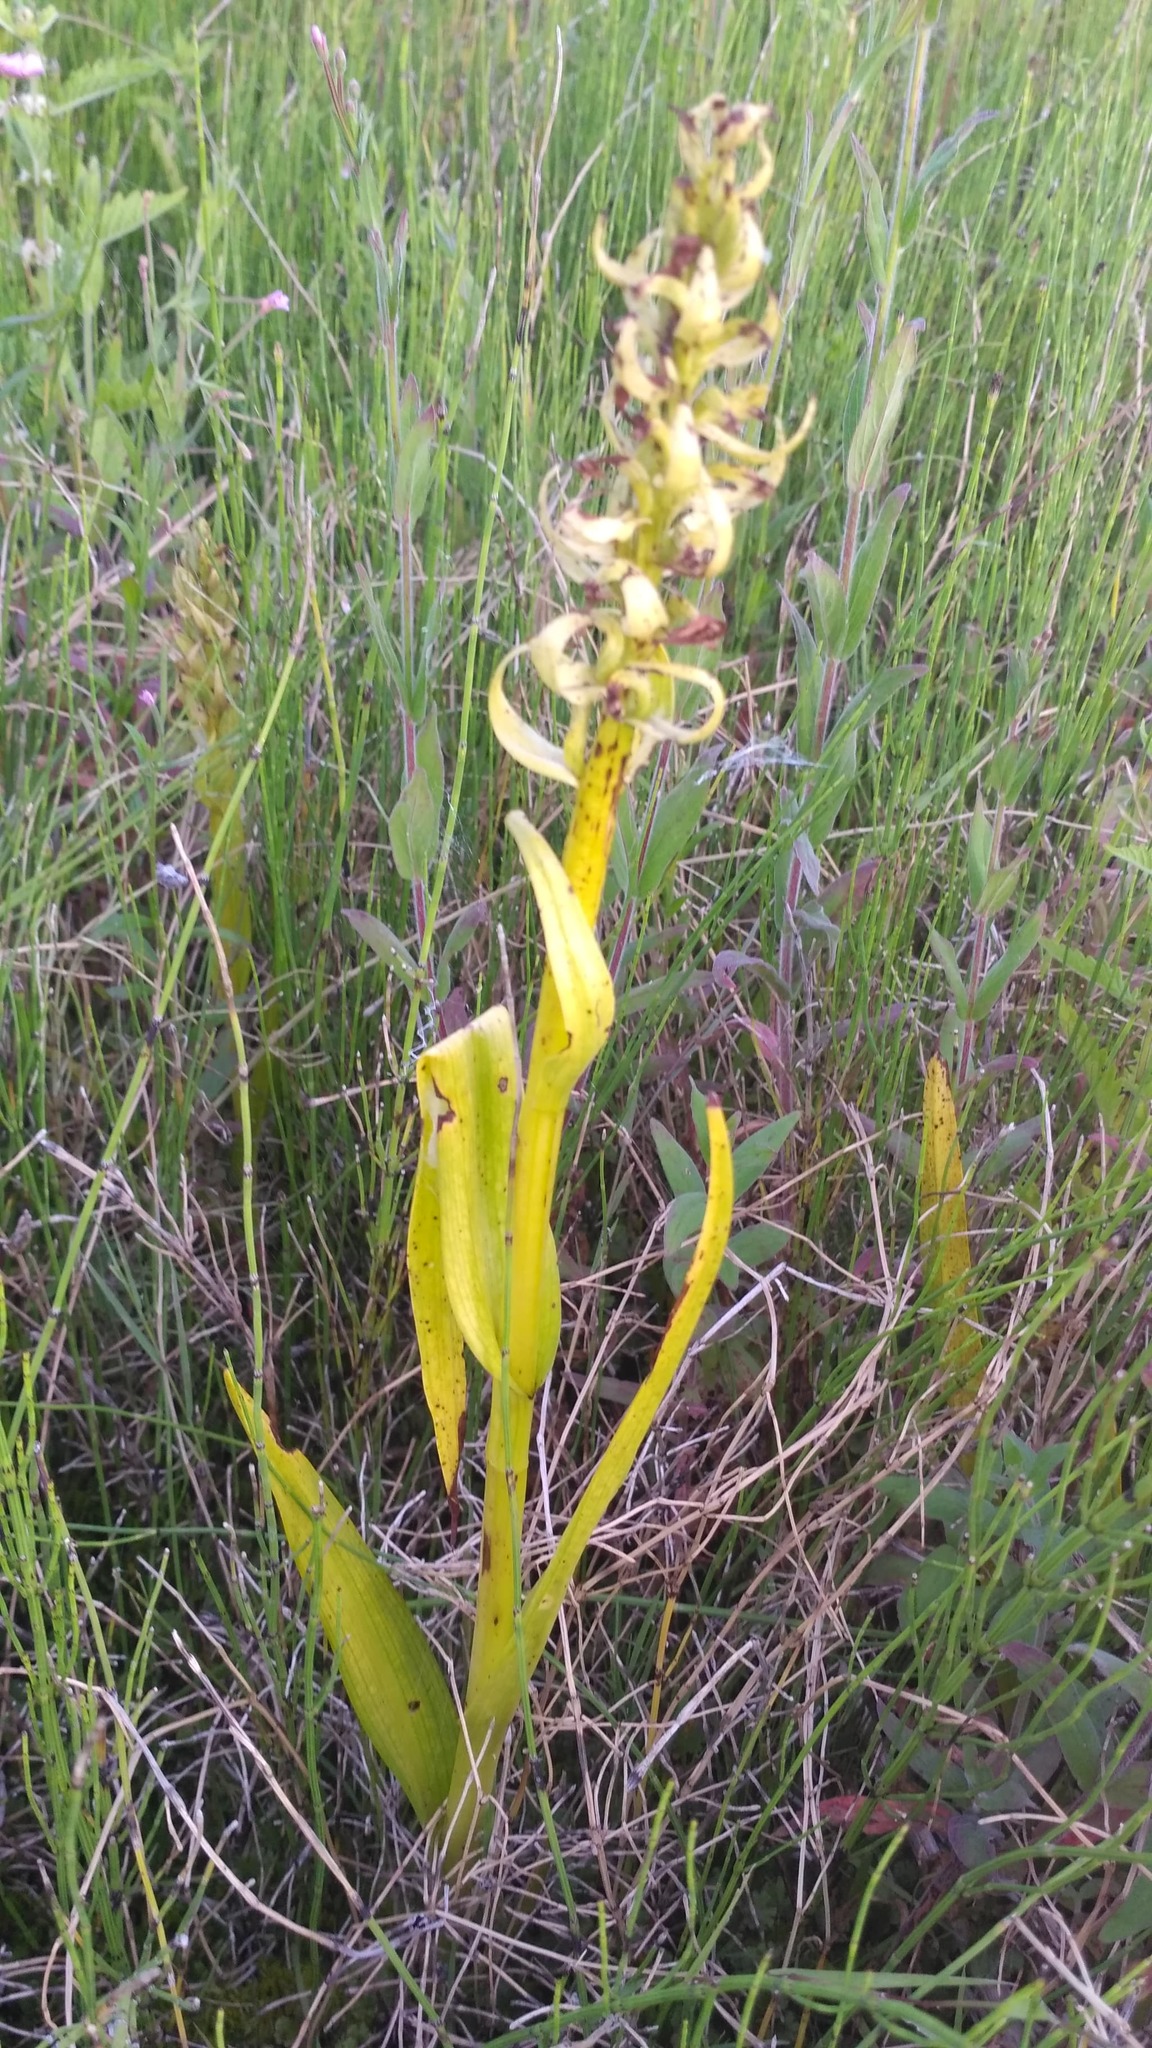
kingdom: Plantae
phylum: Tracheophyta
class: Liliopsida
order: Asparagales
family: Orchidaceae
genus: Dactylorhiza
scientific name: Dactylorhiza incarnata
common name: Early marsh-orchid
